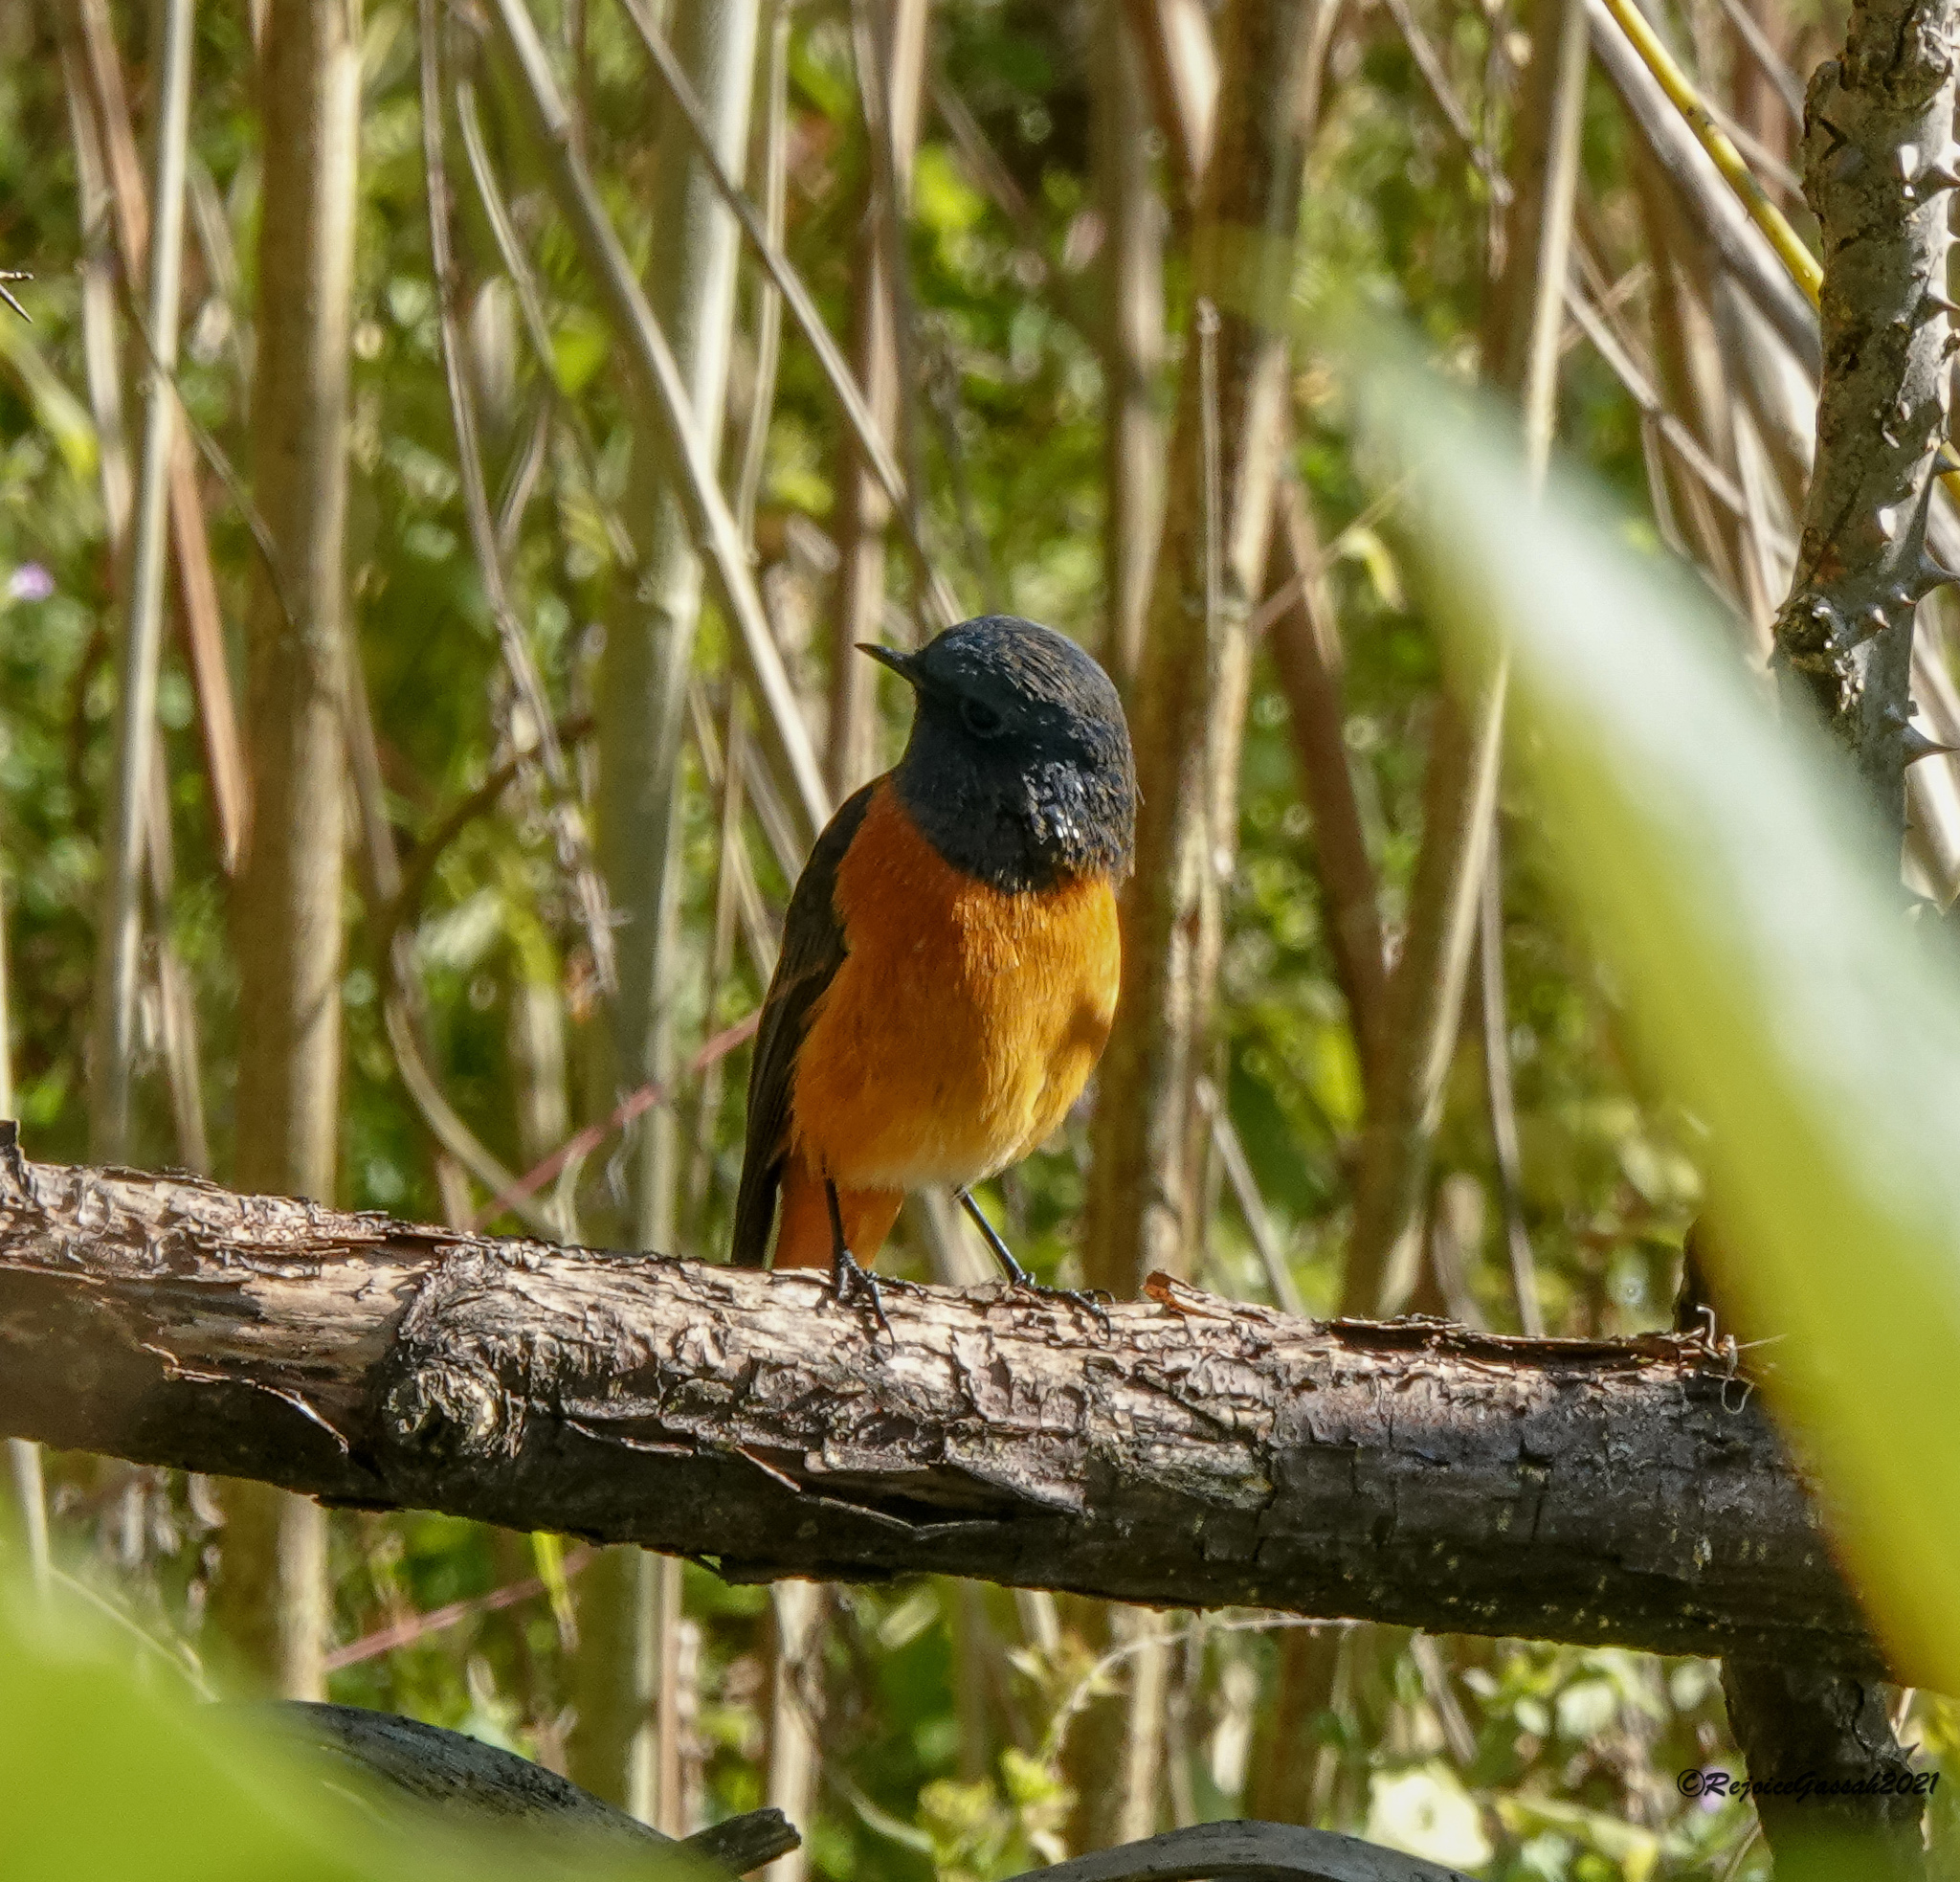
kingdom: Animalia
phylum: Chordata
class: Aves
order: Passeriformes
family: Muscicapidae
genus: Phoenicurus
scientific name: Phoenicurus frontalis
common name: Blue-fronted redstart
